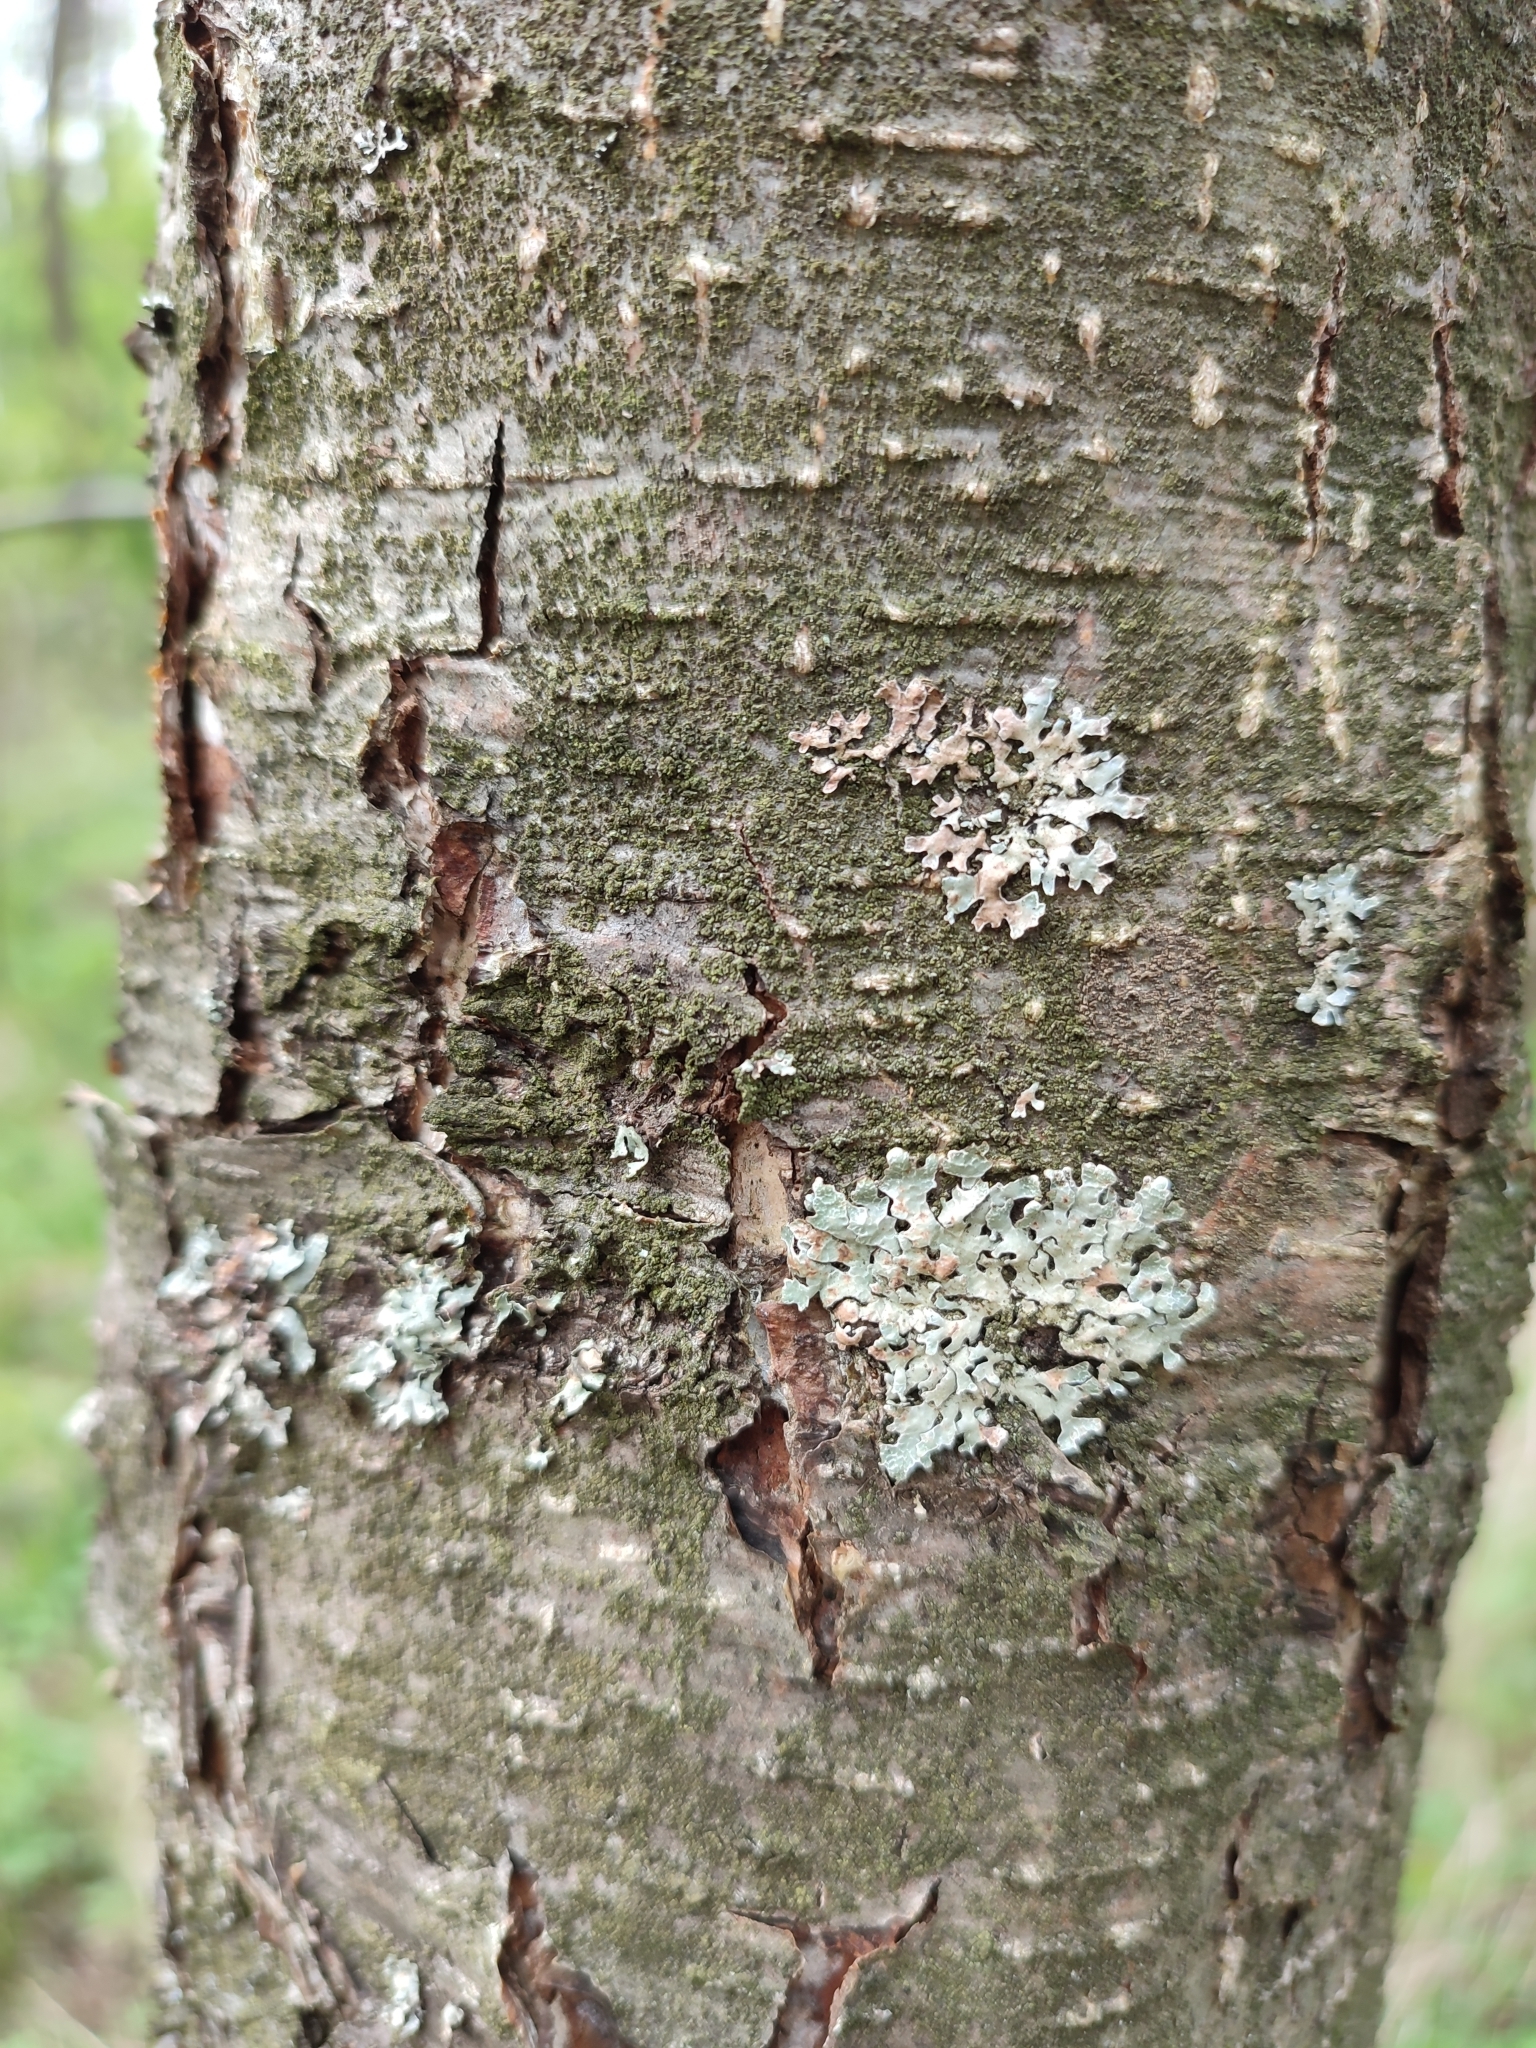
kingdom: Fungi
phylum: Ascomycota
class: Lecanoromycetes
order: Lecanorales
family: Parmeliaceae
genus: Parmelia
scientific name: Parmelia sulcata
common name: Netted shield lichen
